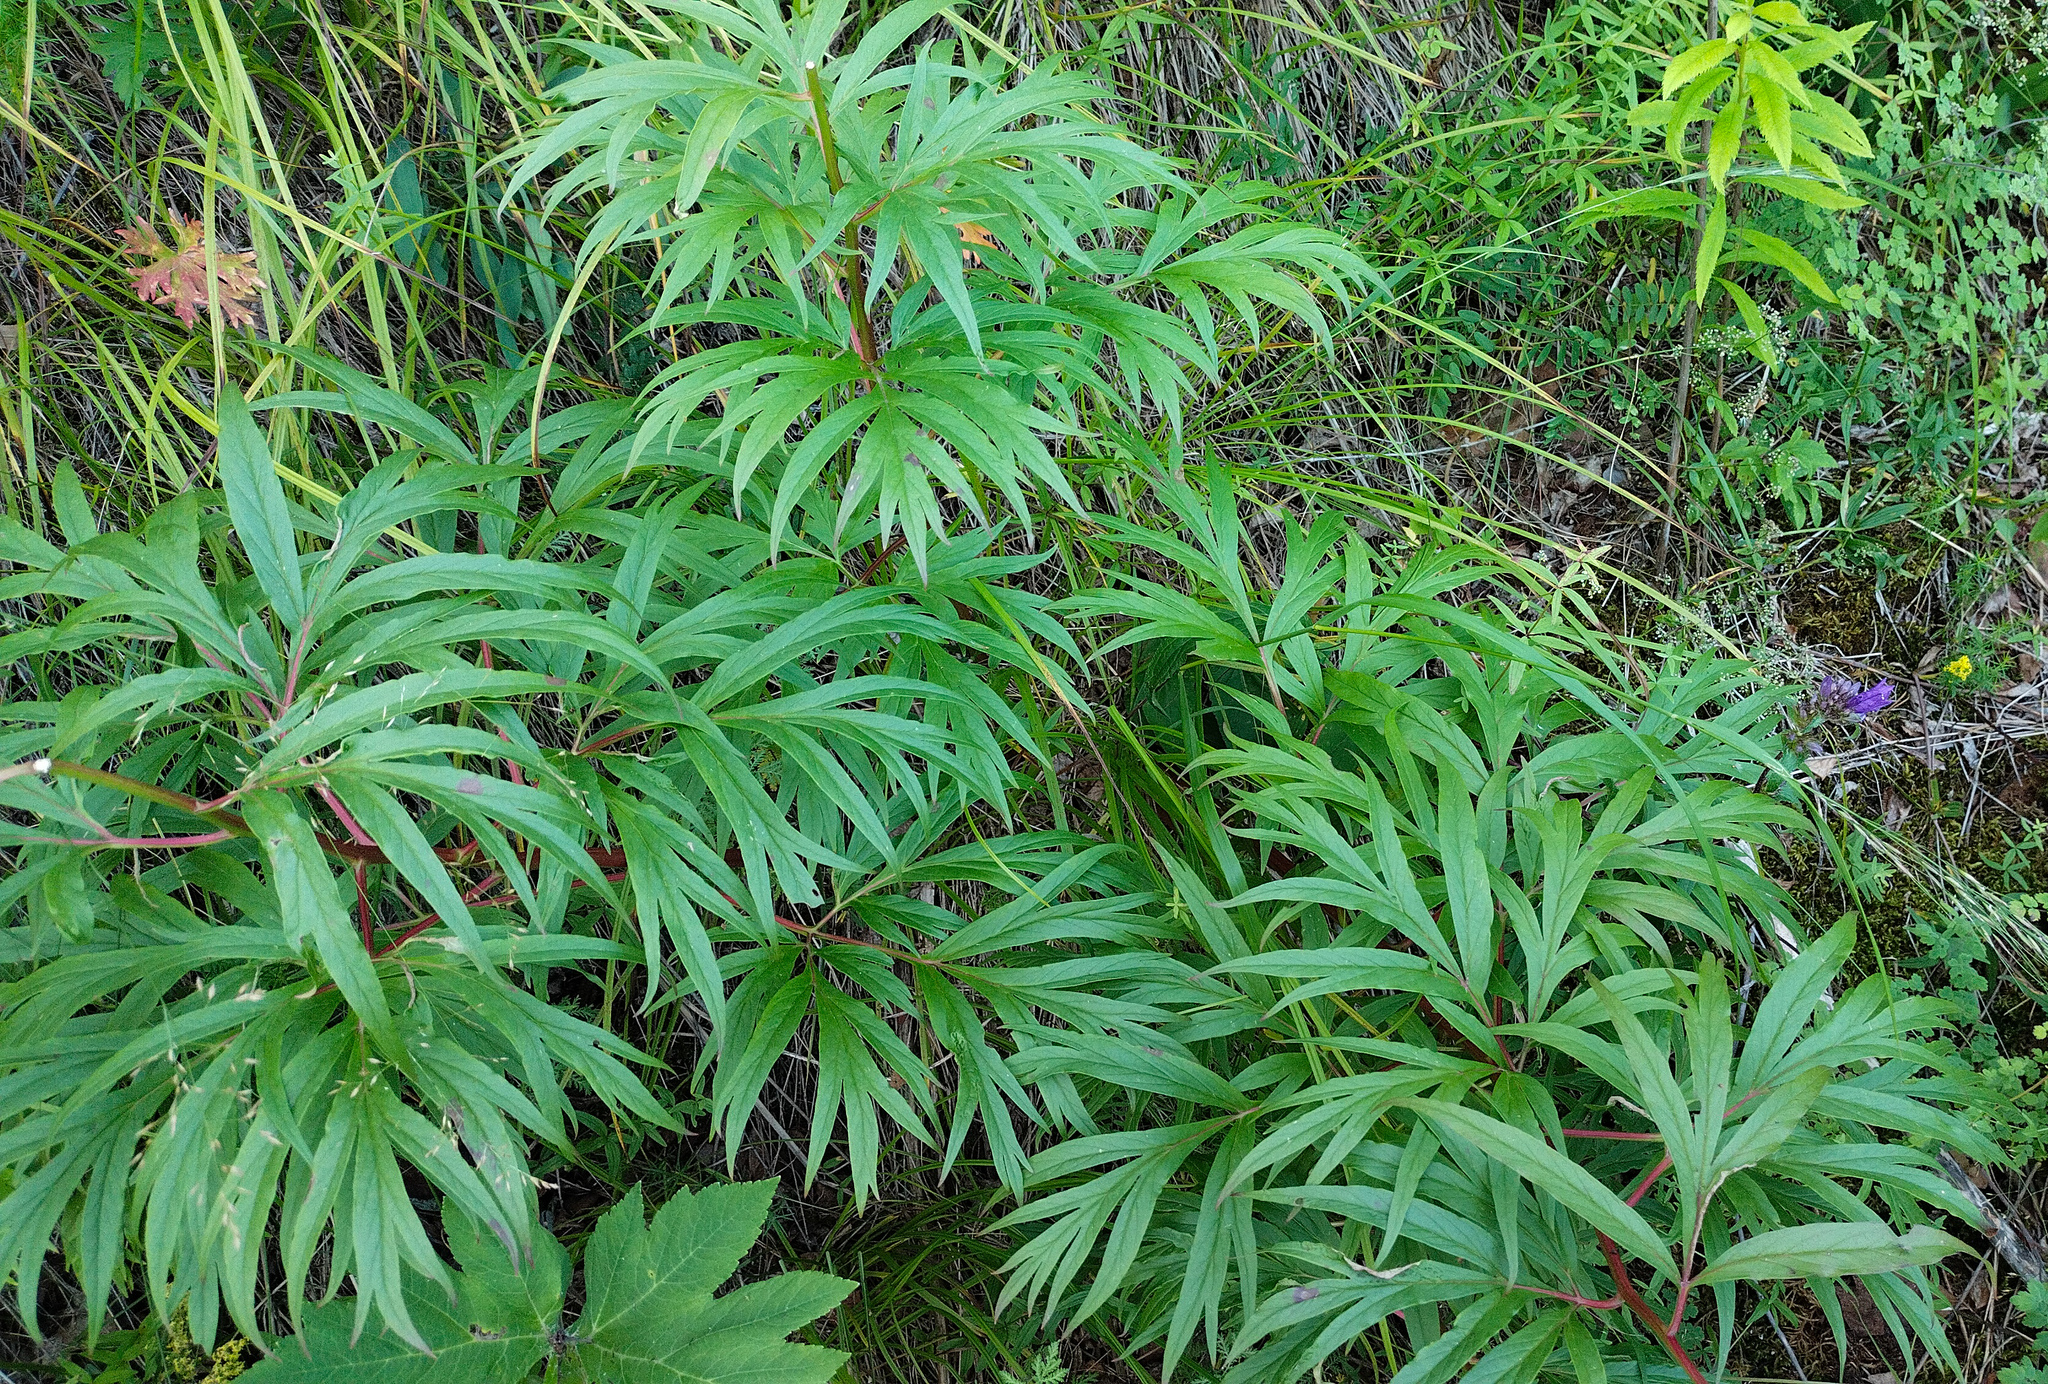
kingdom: Plantae
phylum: Tracheophyta
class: Magnoliopsida
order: Saxifragales
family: Paeoniaceae
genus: Paeonia
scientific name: Paeonia anomala
